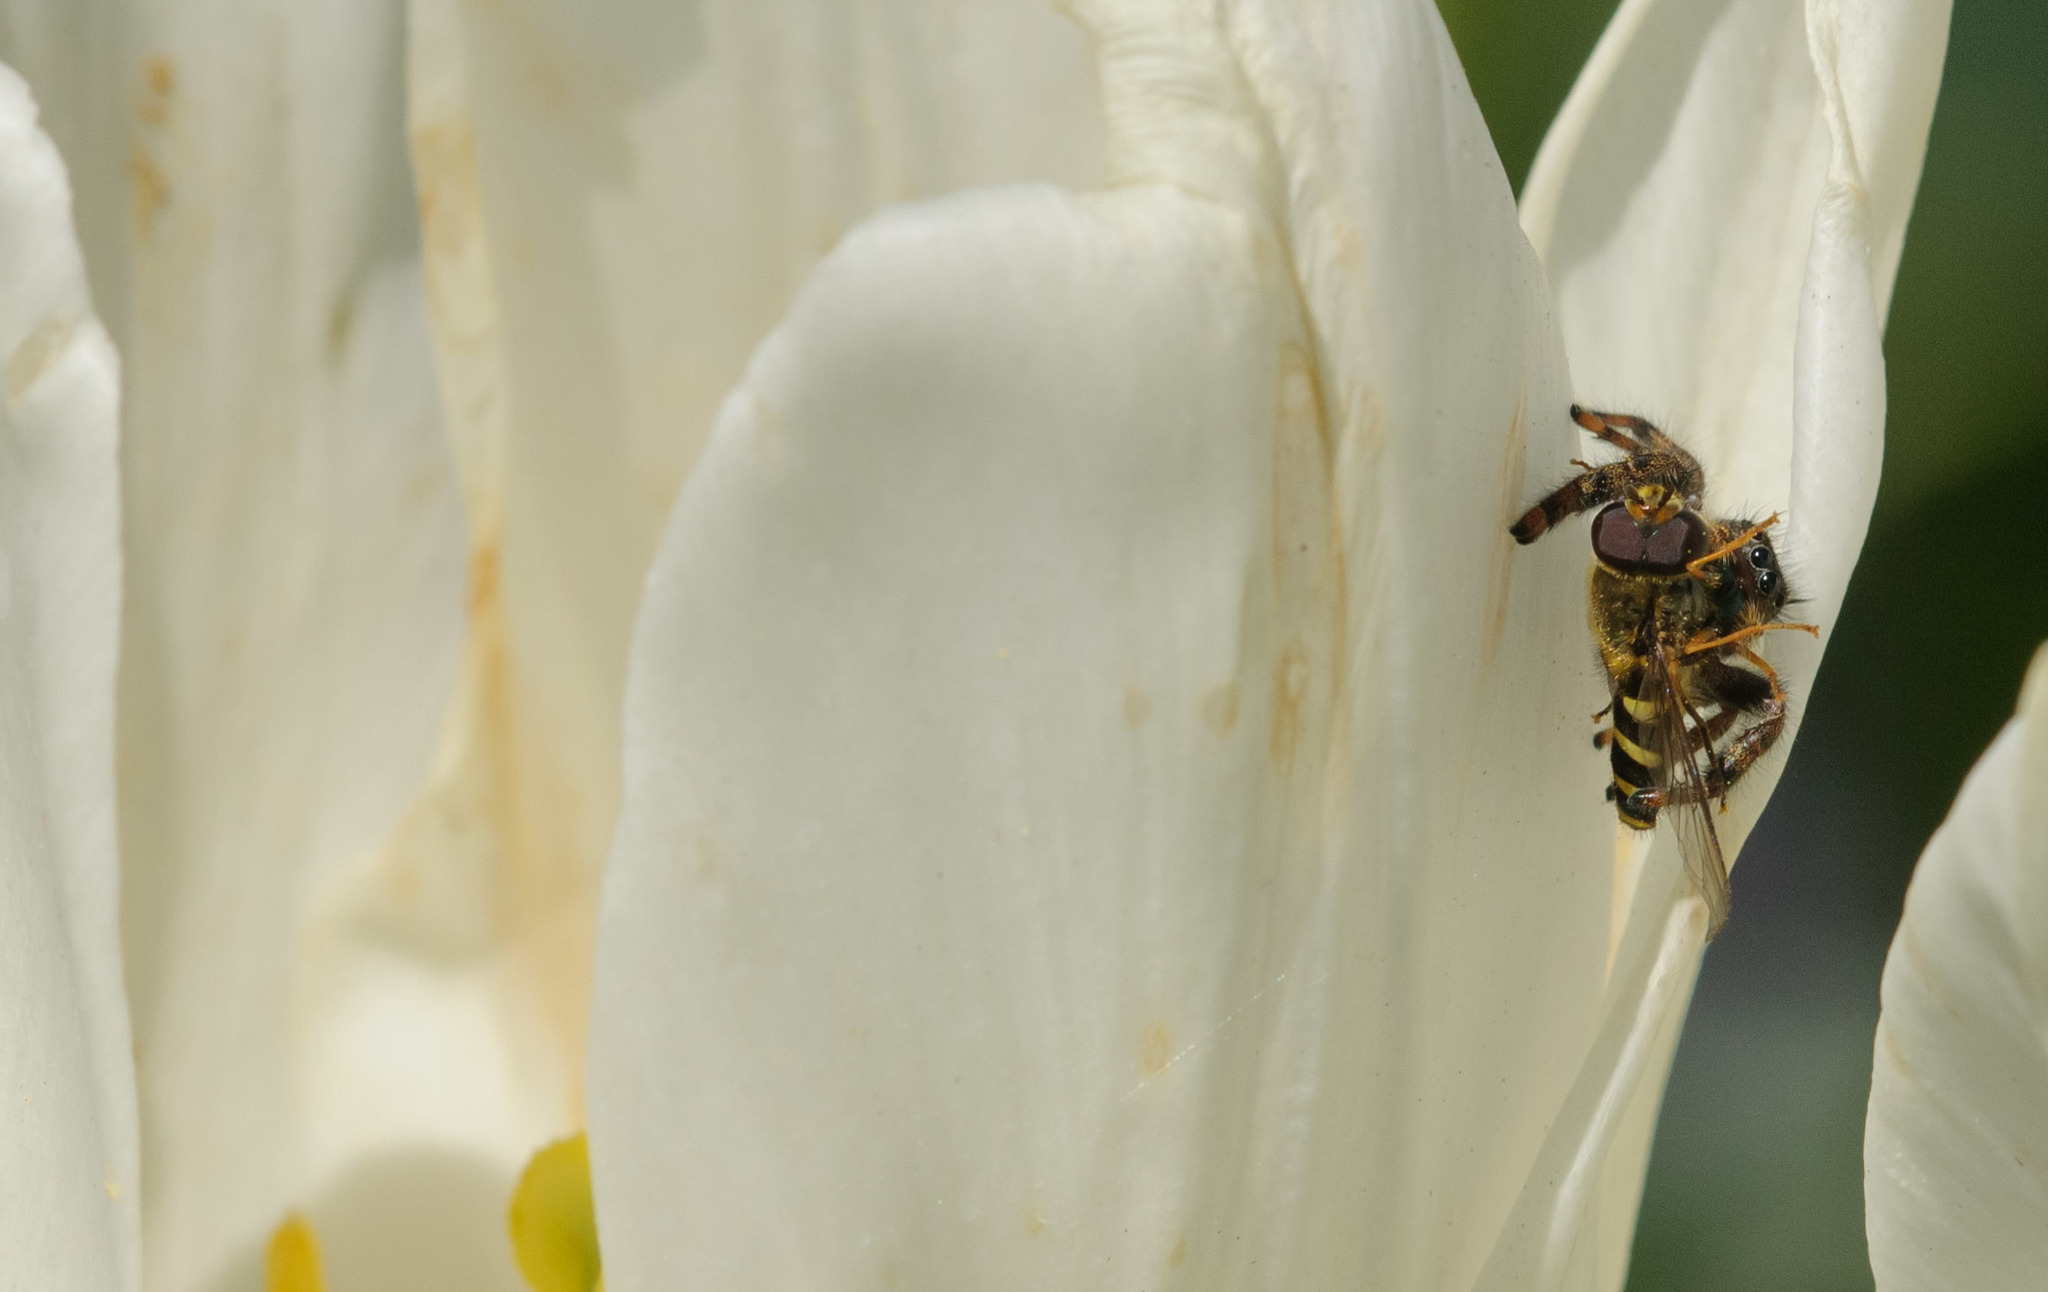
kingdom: Animalia
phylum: Arthropoda
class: Arachnida
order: Araneae
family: Salticidae
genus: Phidippus
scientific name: Phidippus audax
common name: Bold jumper
